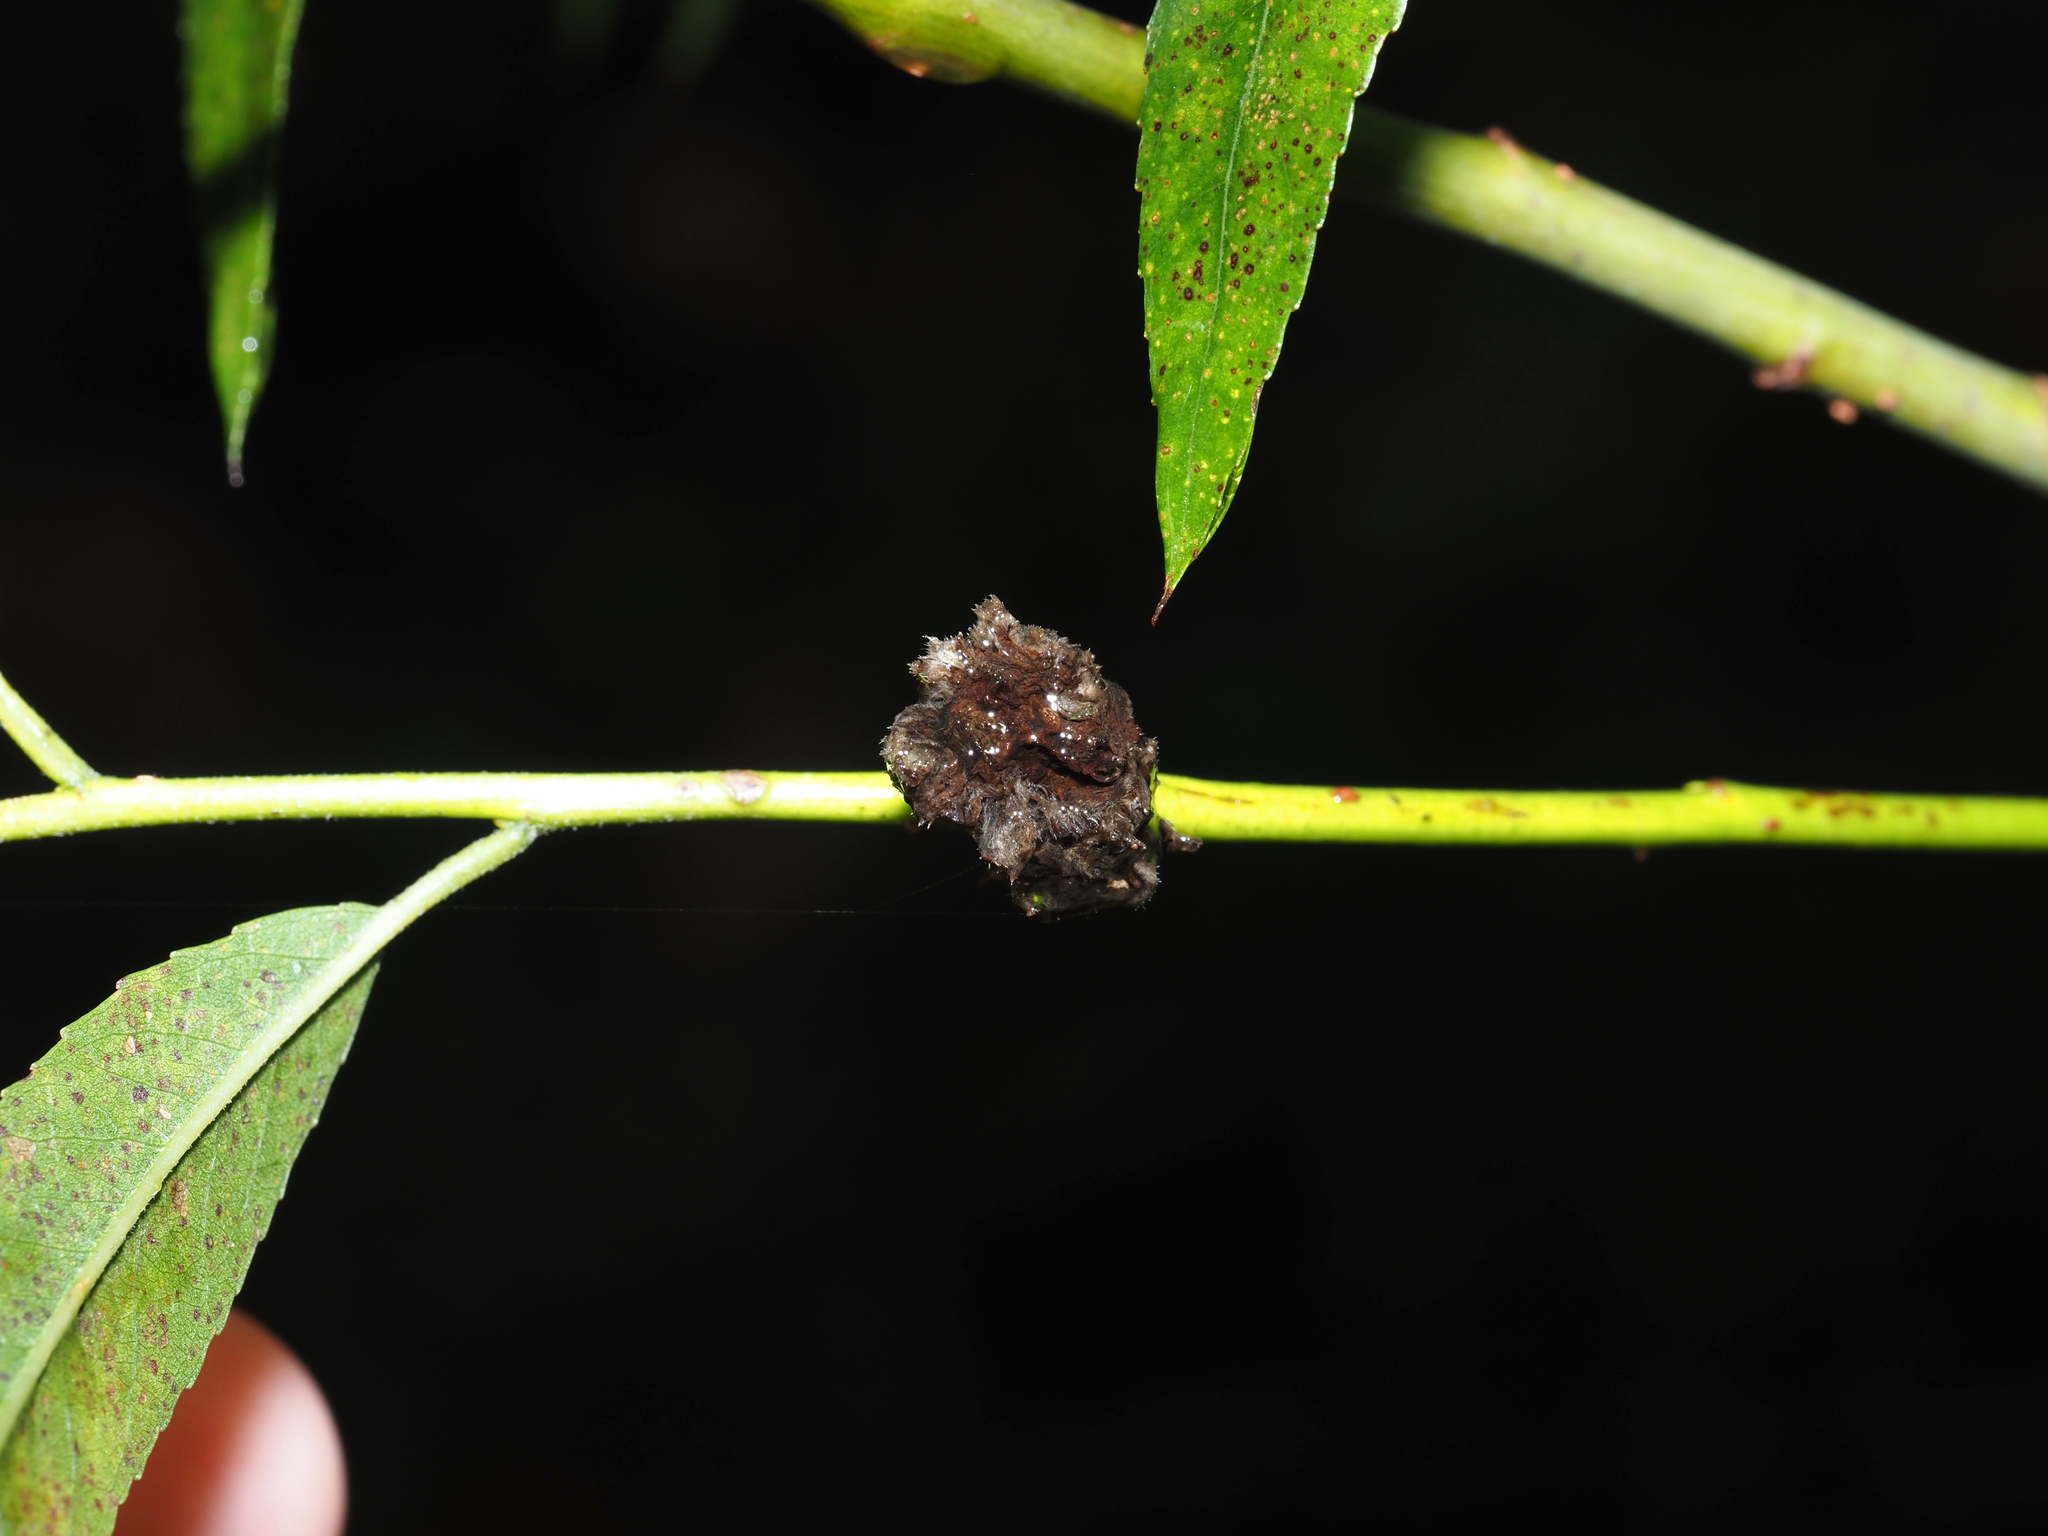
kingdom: Animalia
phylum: Arthropoda
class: Arachnida
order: Trombidiformes
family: Eriophyidae
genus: Aculops
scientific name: Aculops
